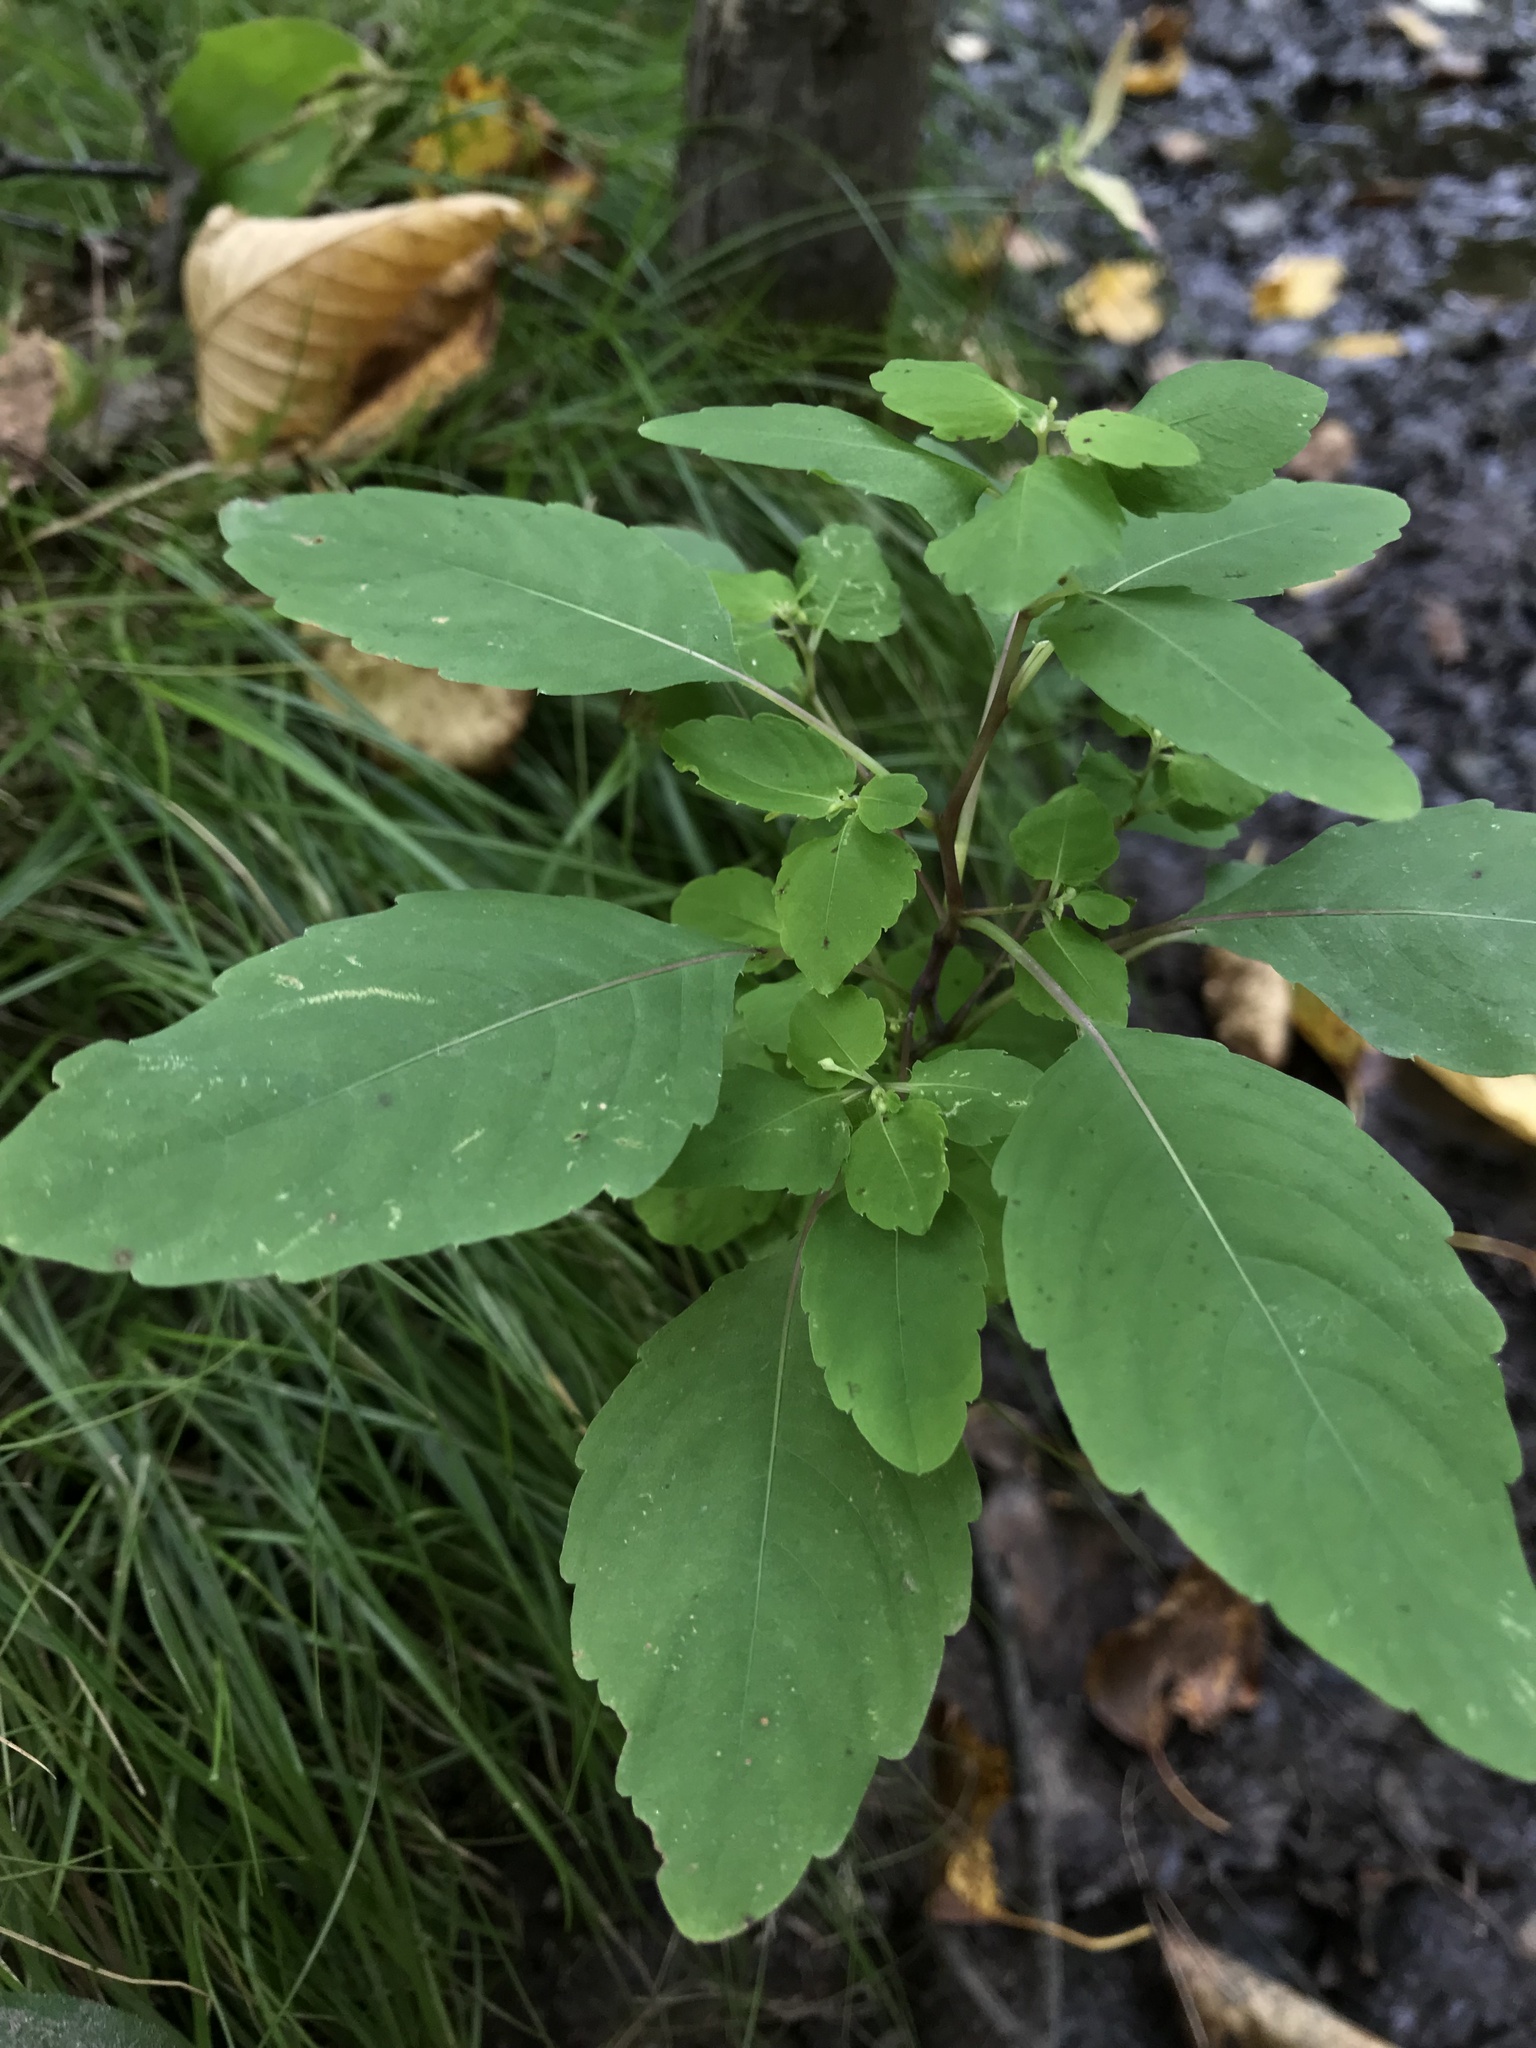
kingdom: Plantae
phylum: Tracheophyta
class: Magnoliopsida
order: Ericales
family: Balsaminaceae
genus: Impatiens
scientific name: Impatiens capensis
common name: Orange balsam
